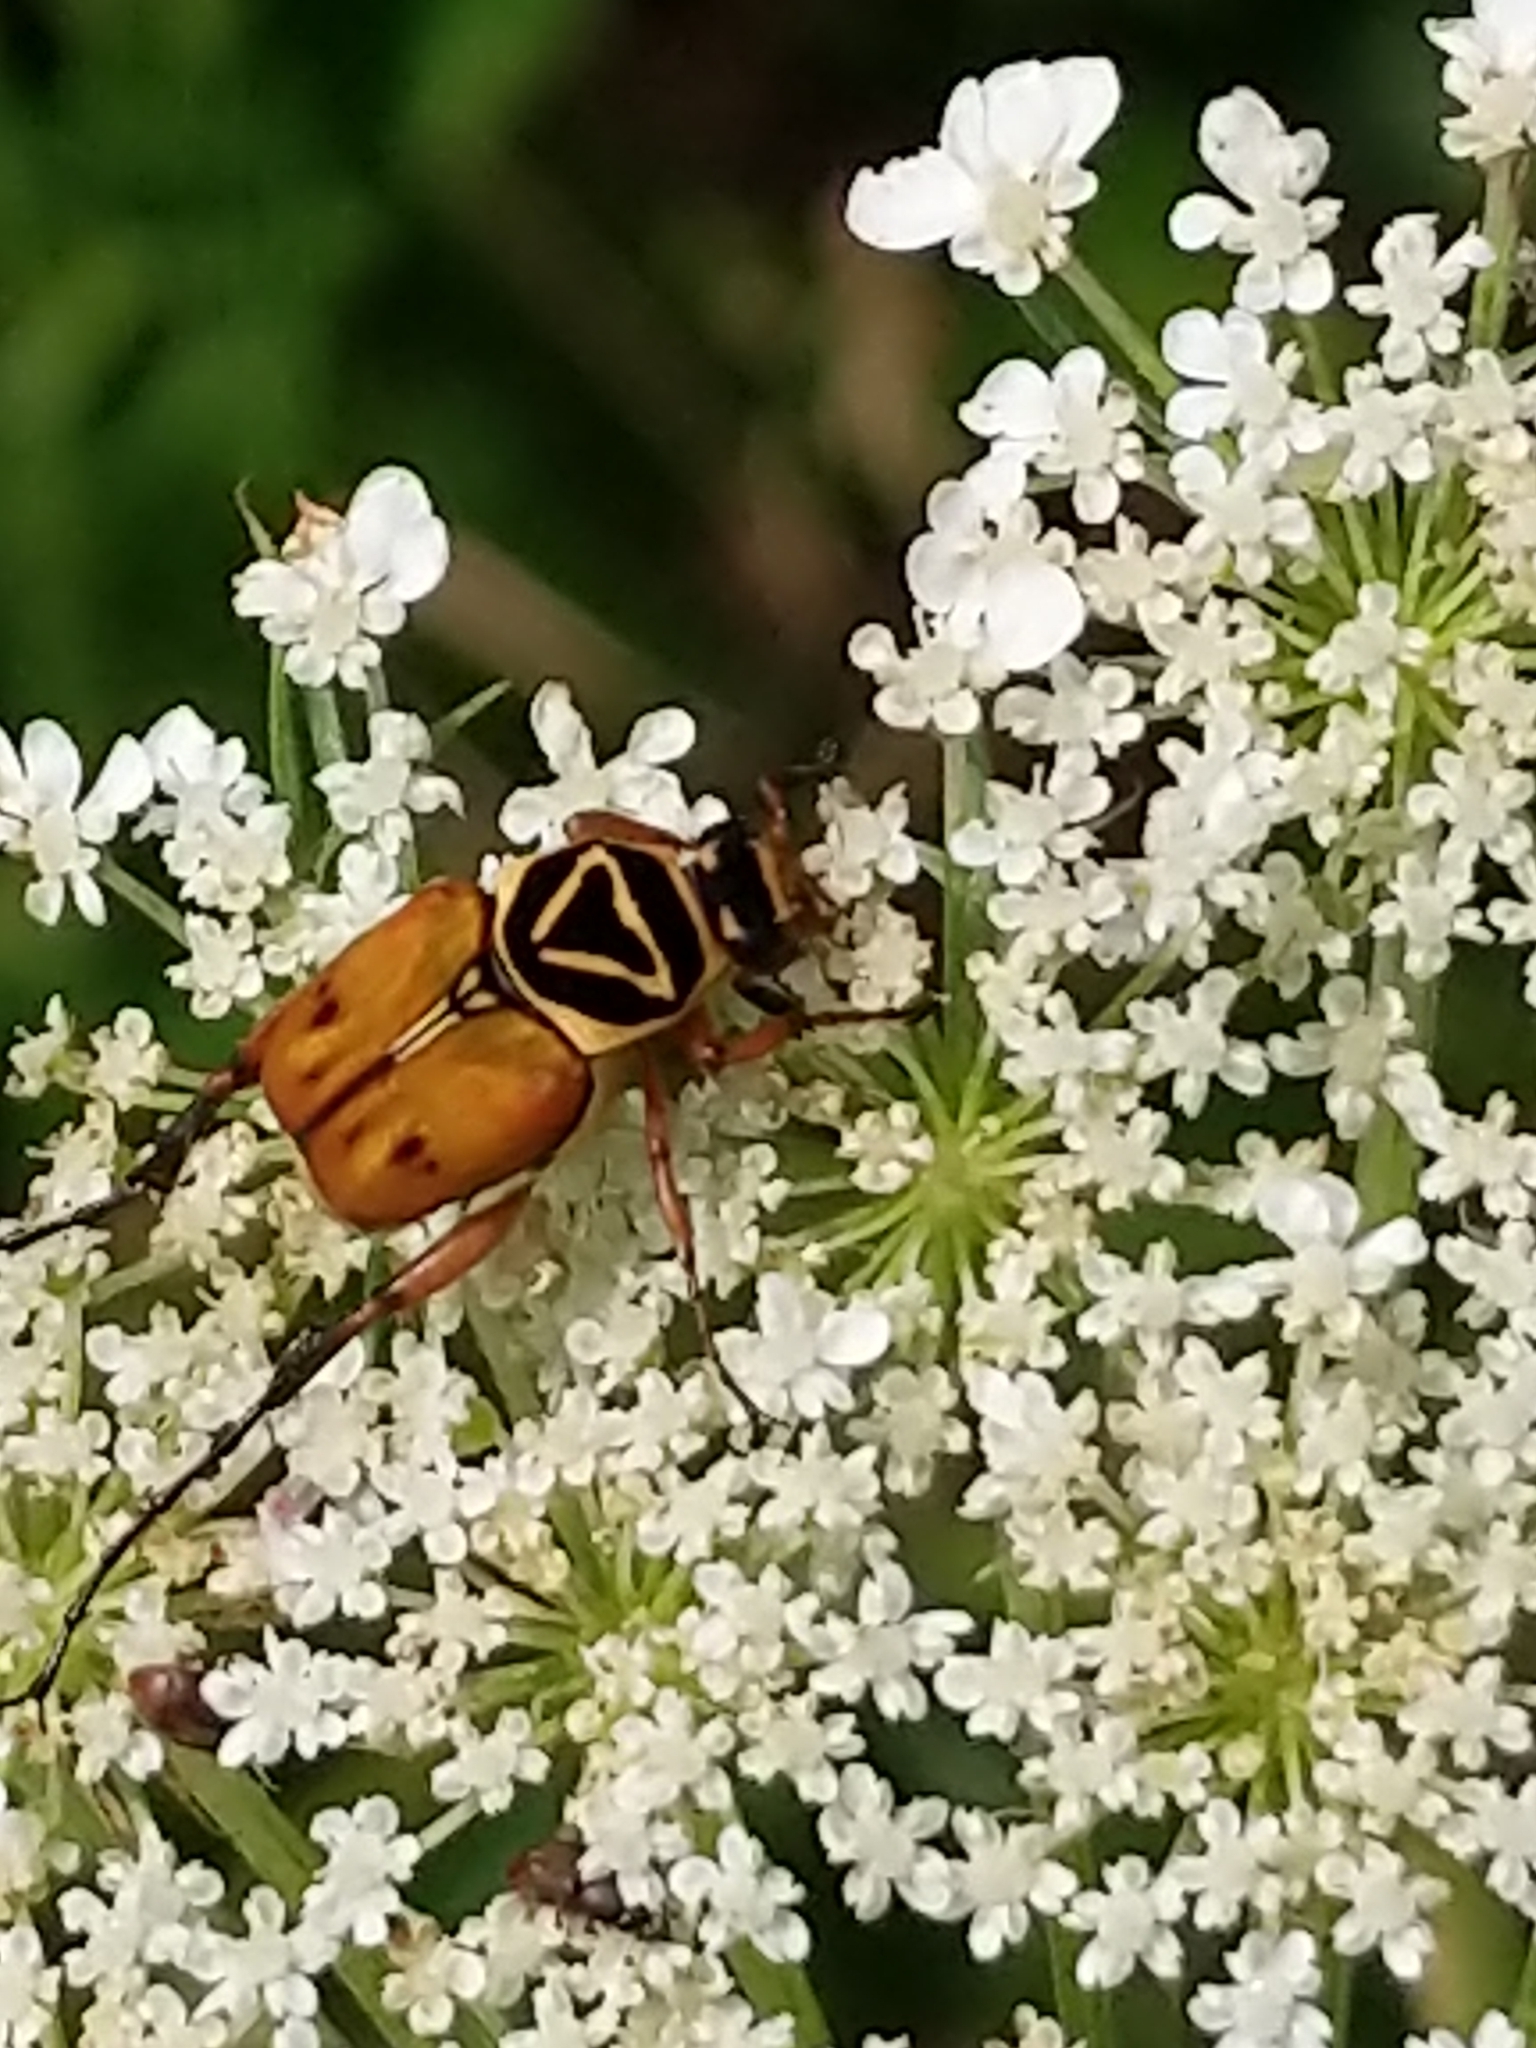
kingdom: Animalia
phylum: Arthropoda
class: Insecta
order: Coleoptera
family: Scarabaeidae
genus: Trigonopeltastes
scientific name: Trigonopeltastes delta
